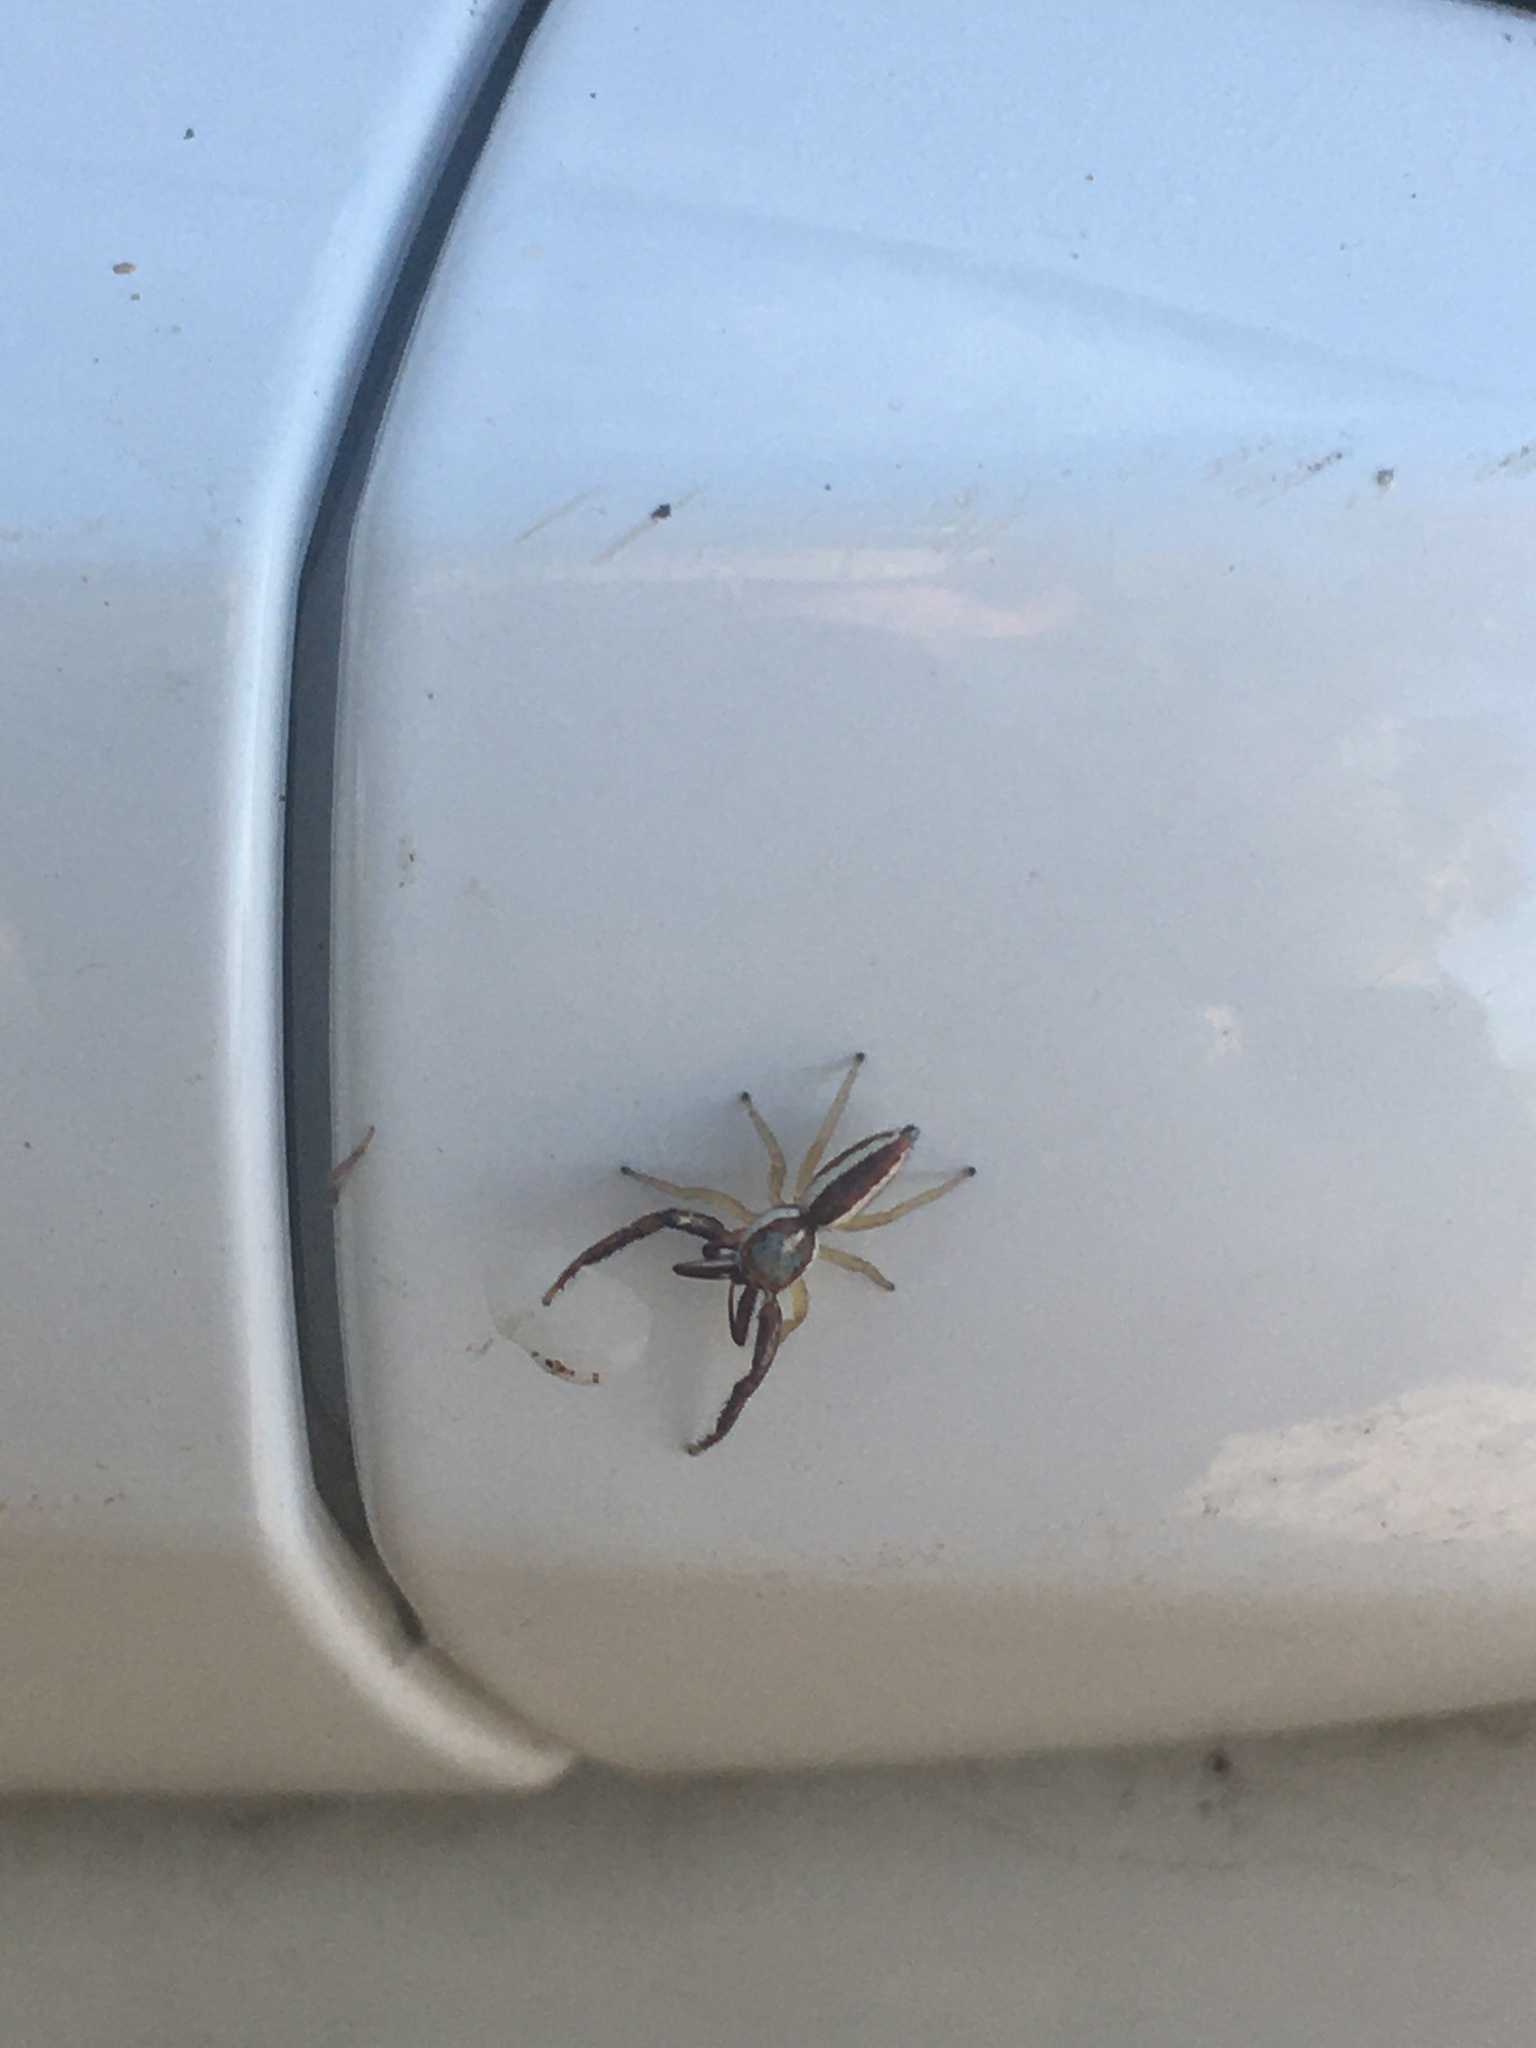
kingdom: Animalia
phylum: Arthropoda
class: Arachnida
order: Araneae
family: Salticidae
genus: Hentzia
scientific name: Hentzia palmarum
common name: Common hentz jumping spider
